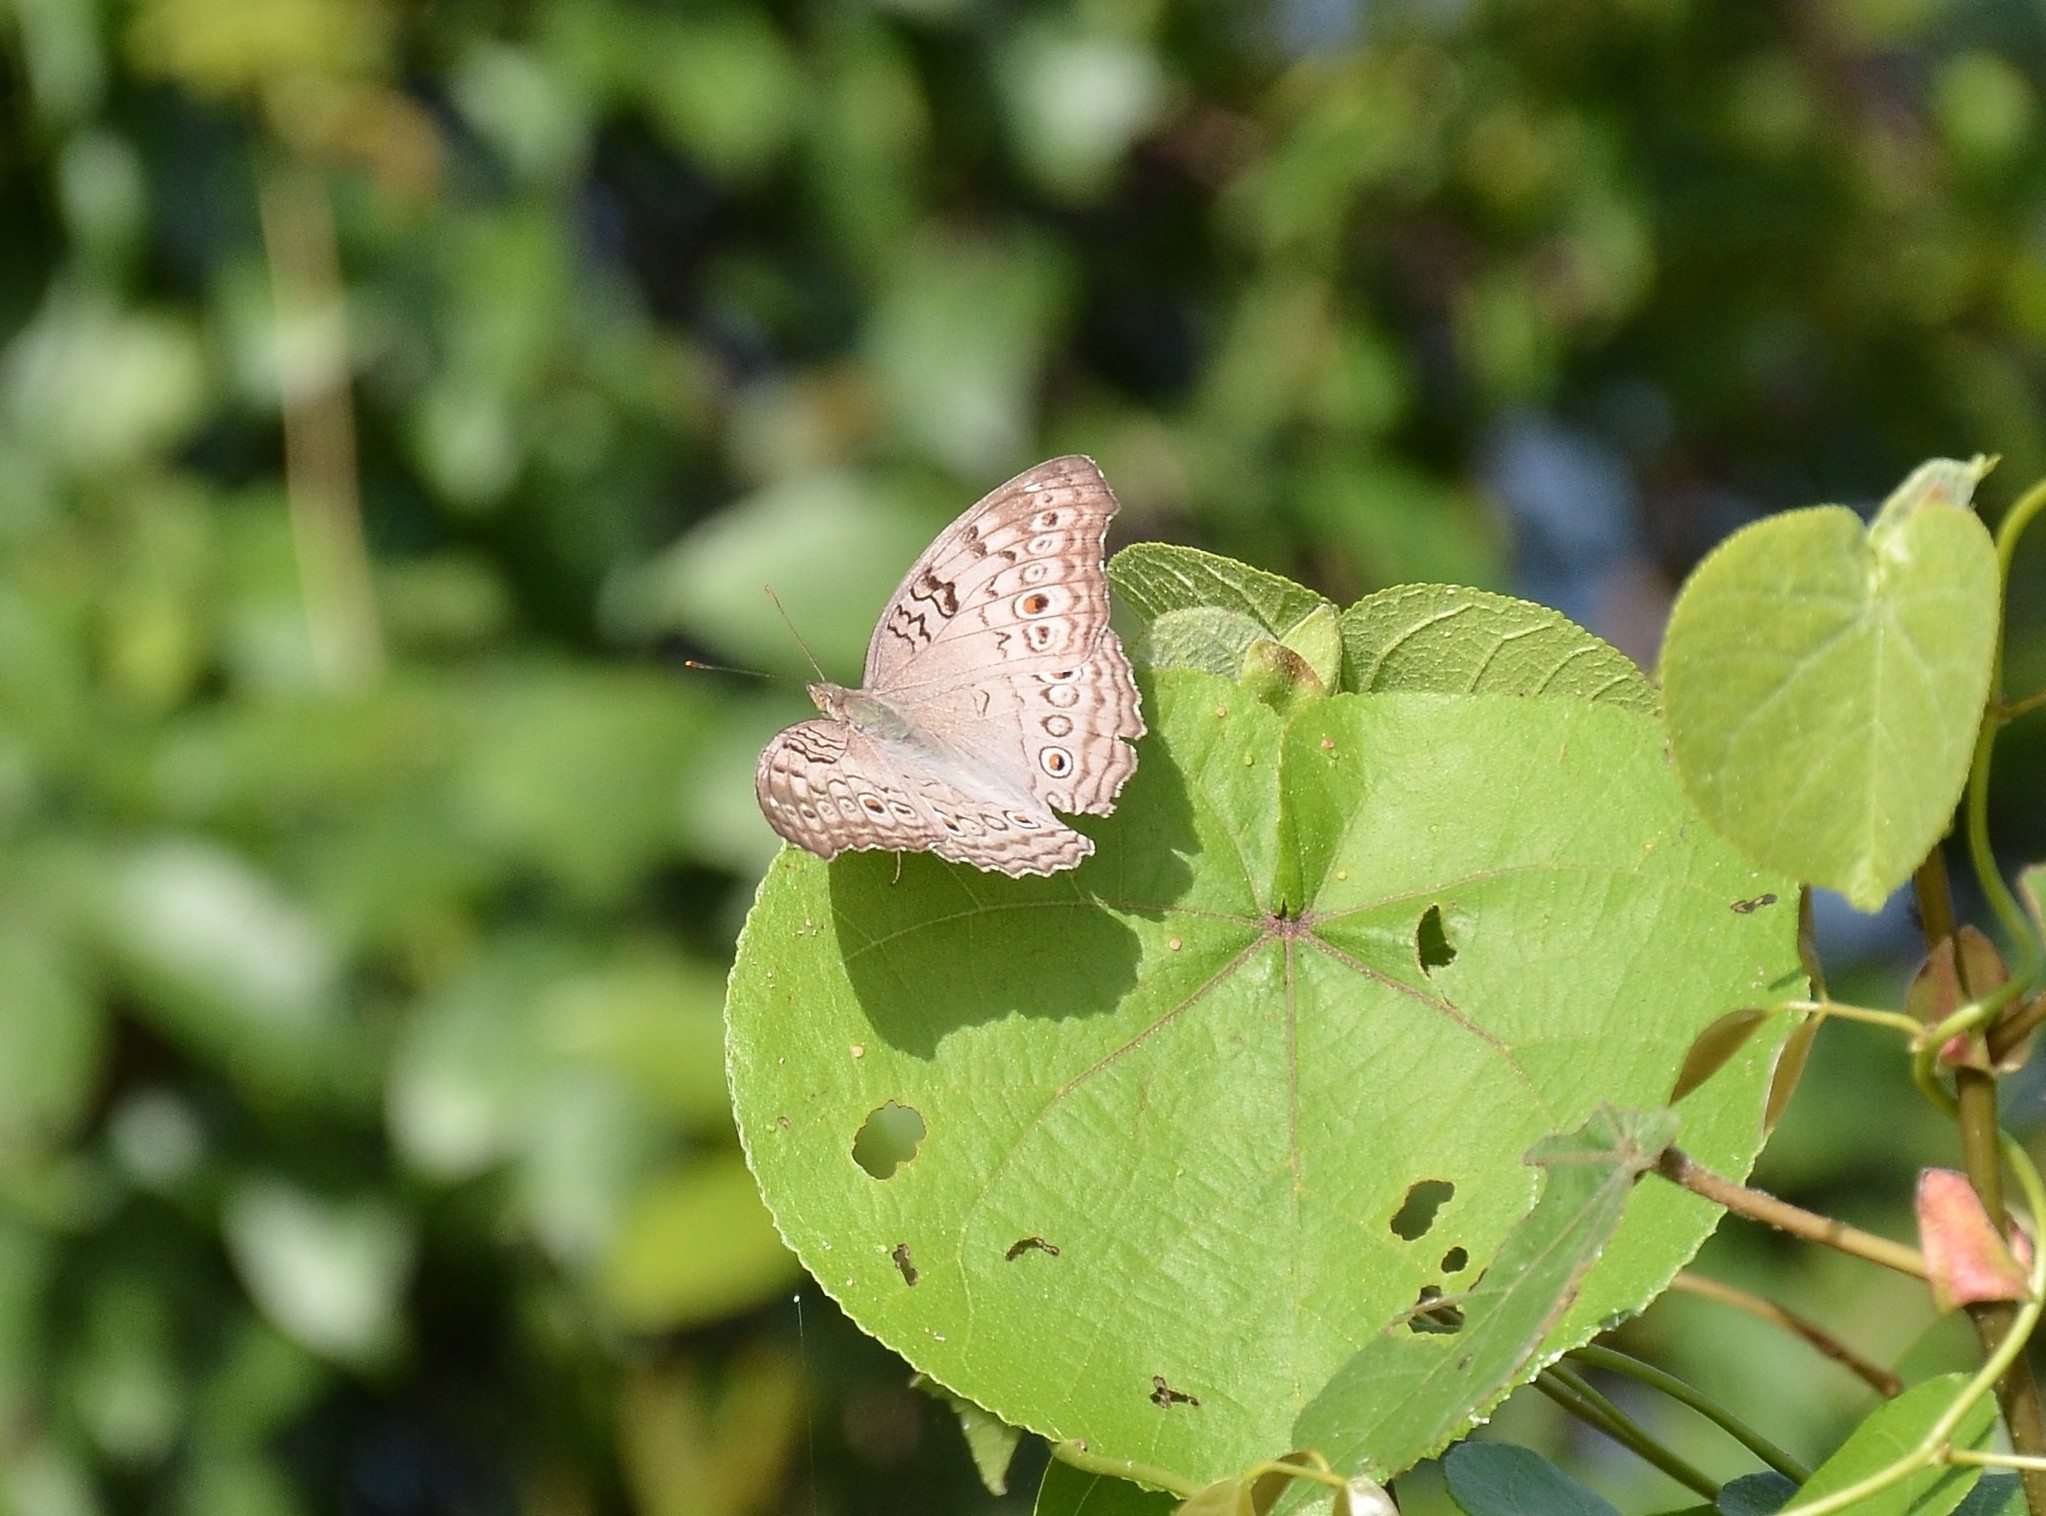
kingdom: Animalia
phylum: Arthropoda
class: Insecta
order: Lepidoptera
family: Nymphalidae
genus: Junonia
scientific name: Junonia atlites
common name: Grey pansy
